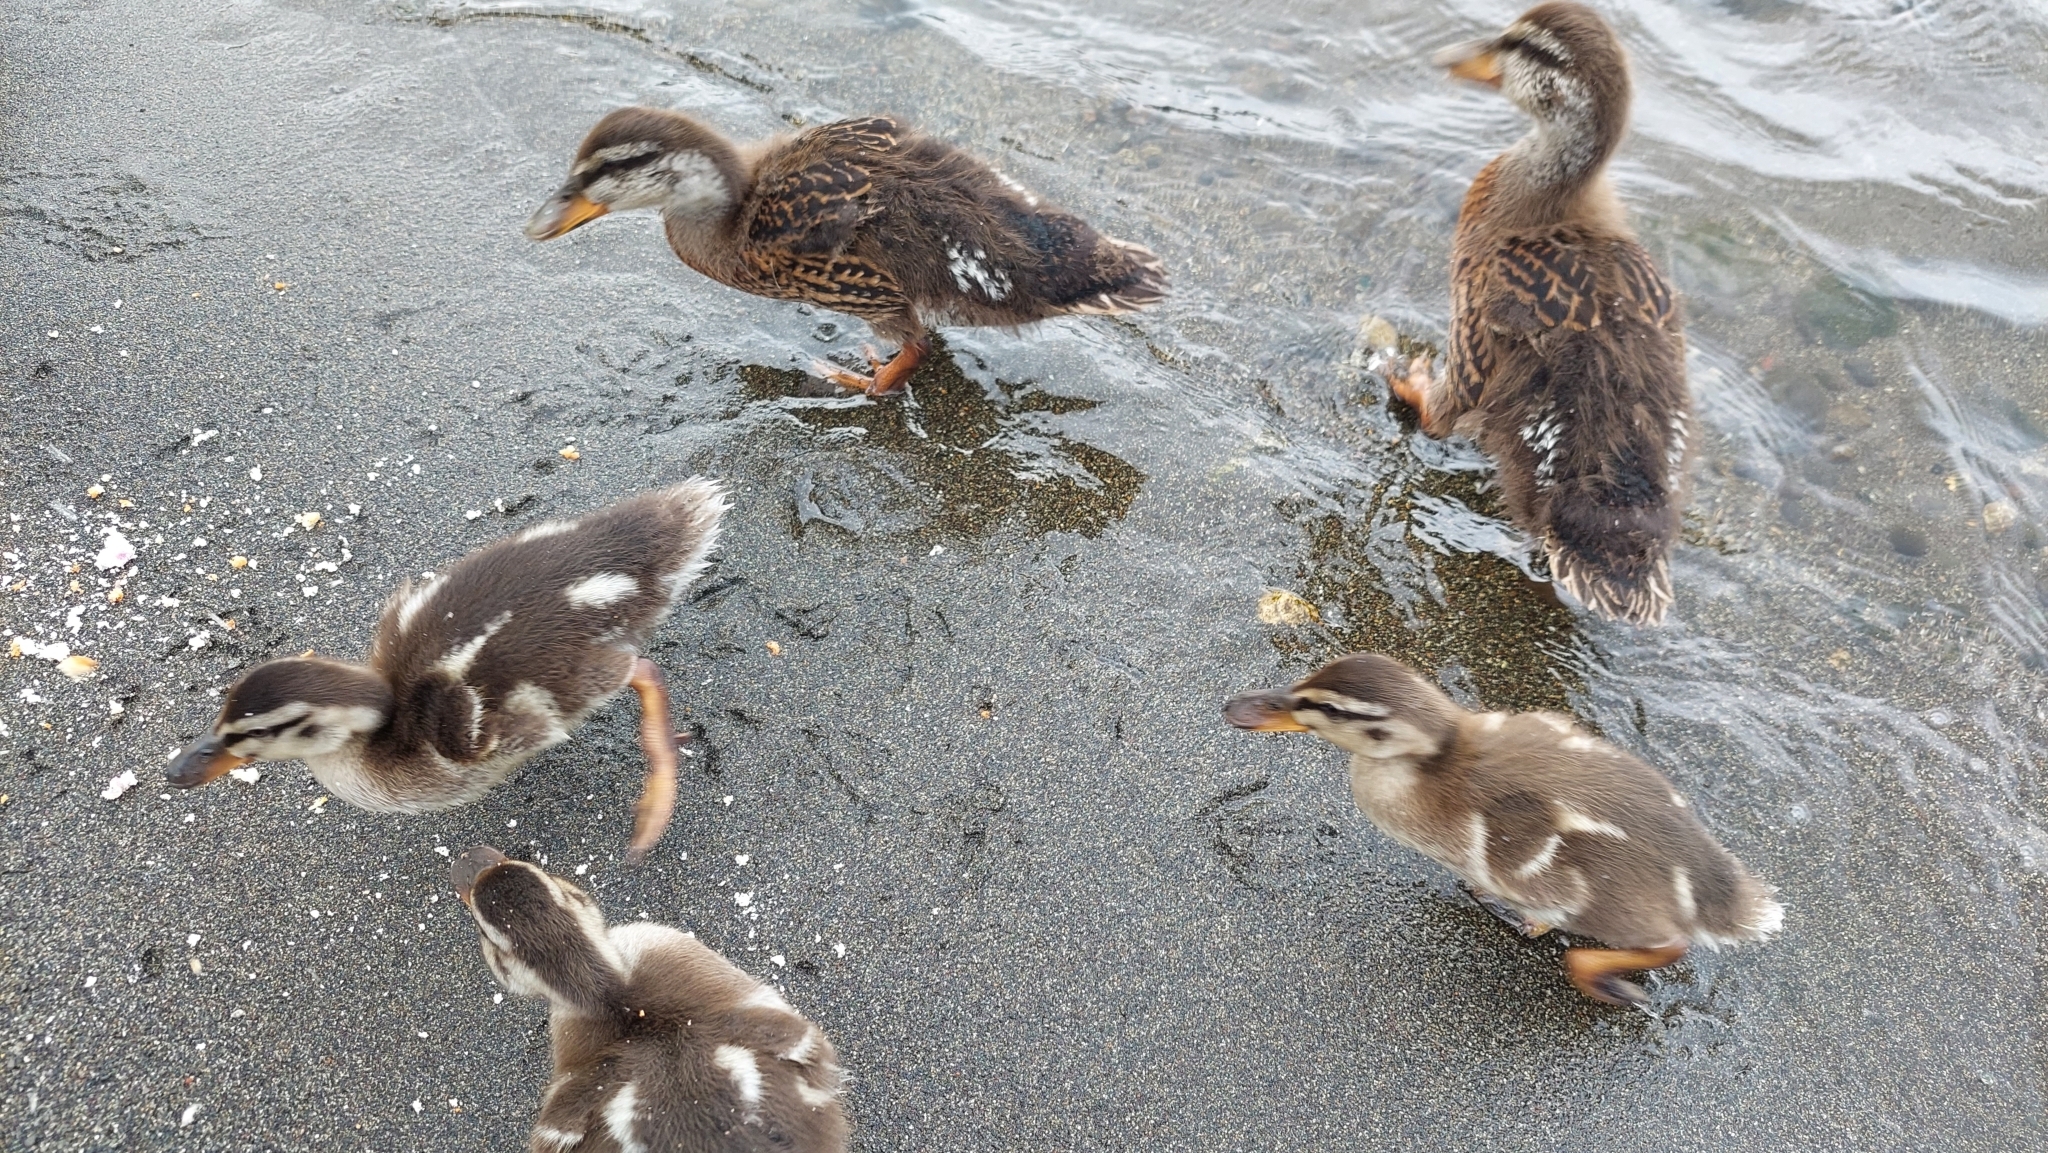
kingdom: Animalia
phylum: Chordata
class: Aves
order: Anseriformes
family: Anatidae
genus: Anas
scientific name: Anas platyrhynchos
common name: Mallard
